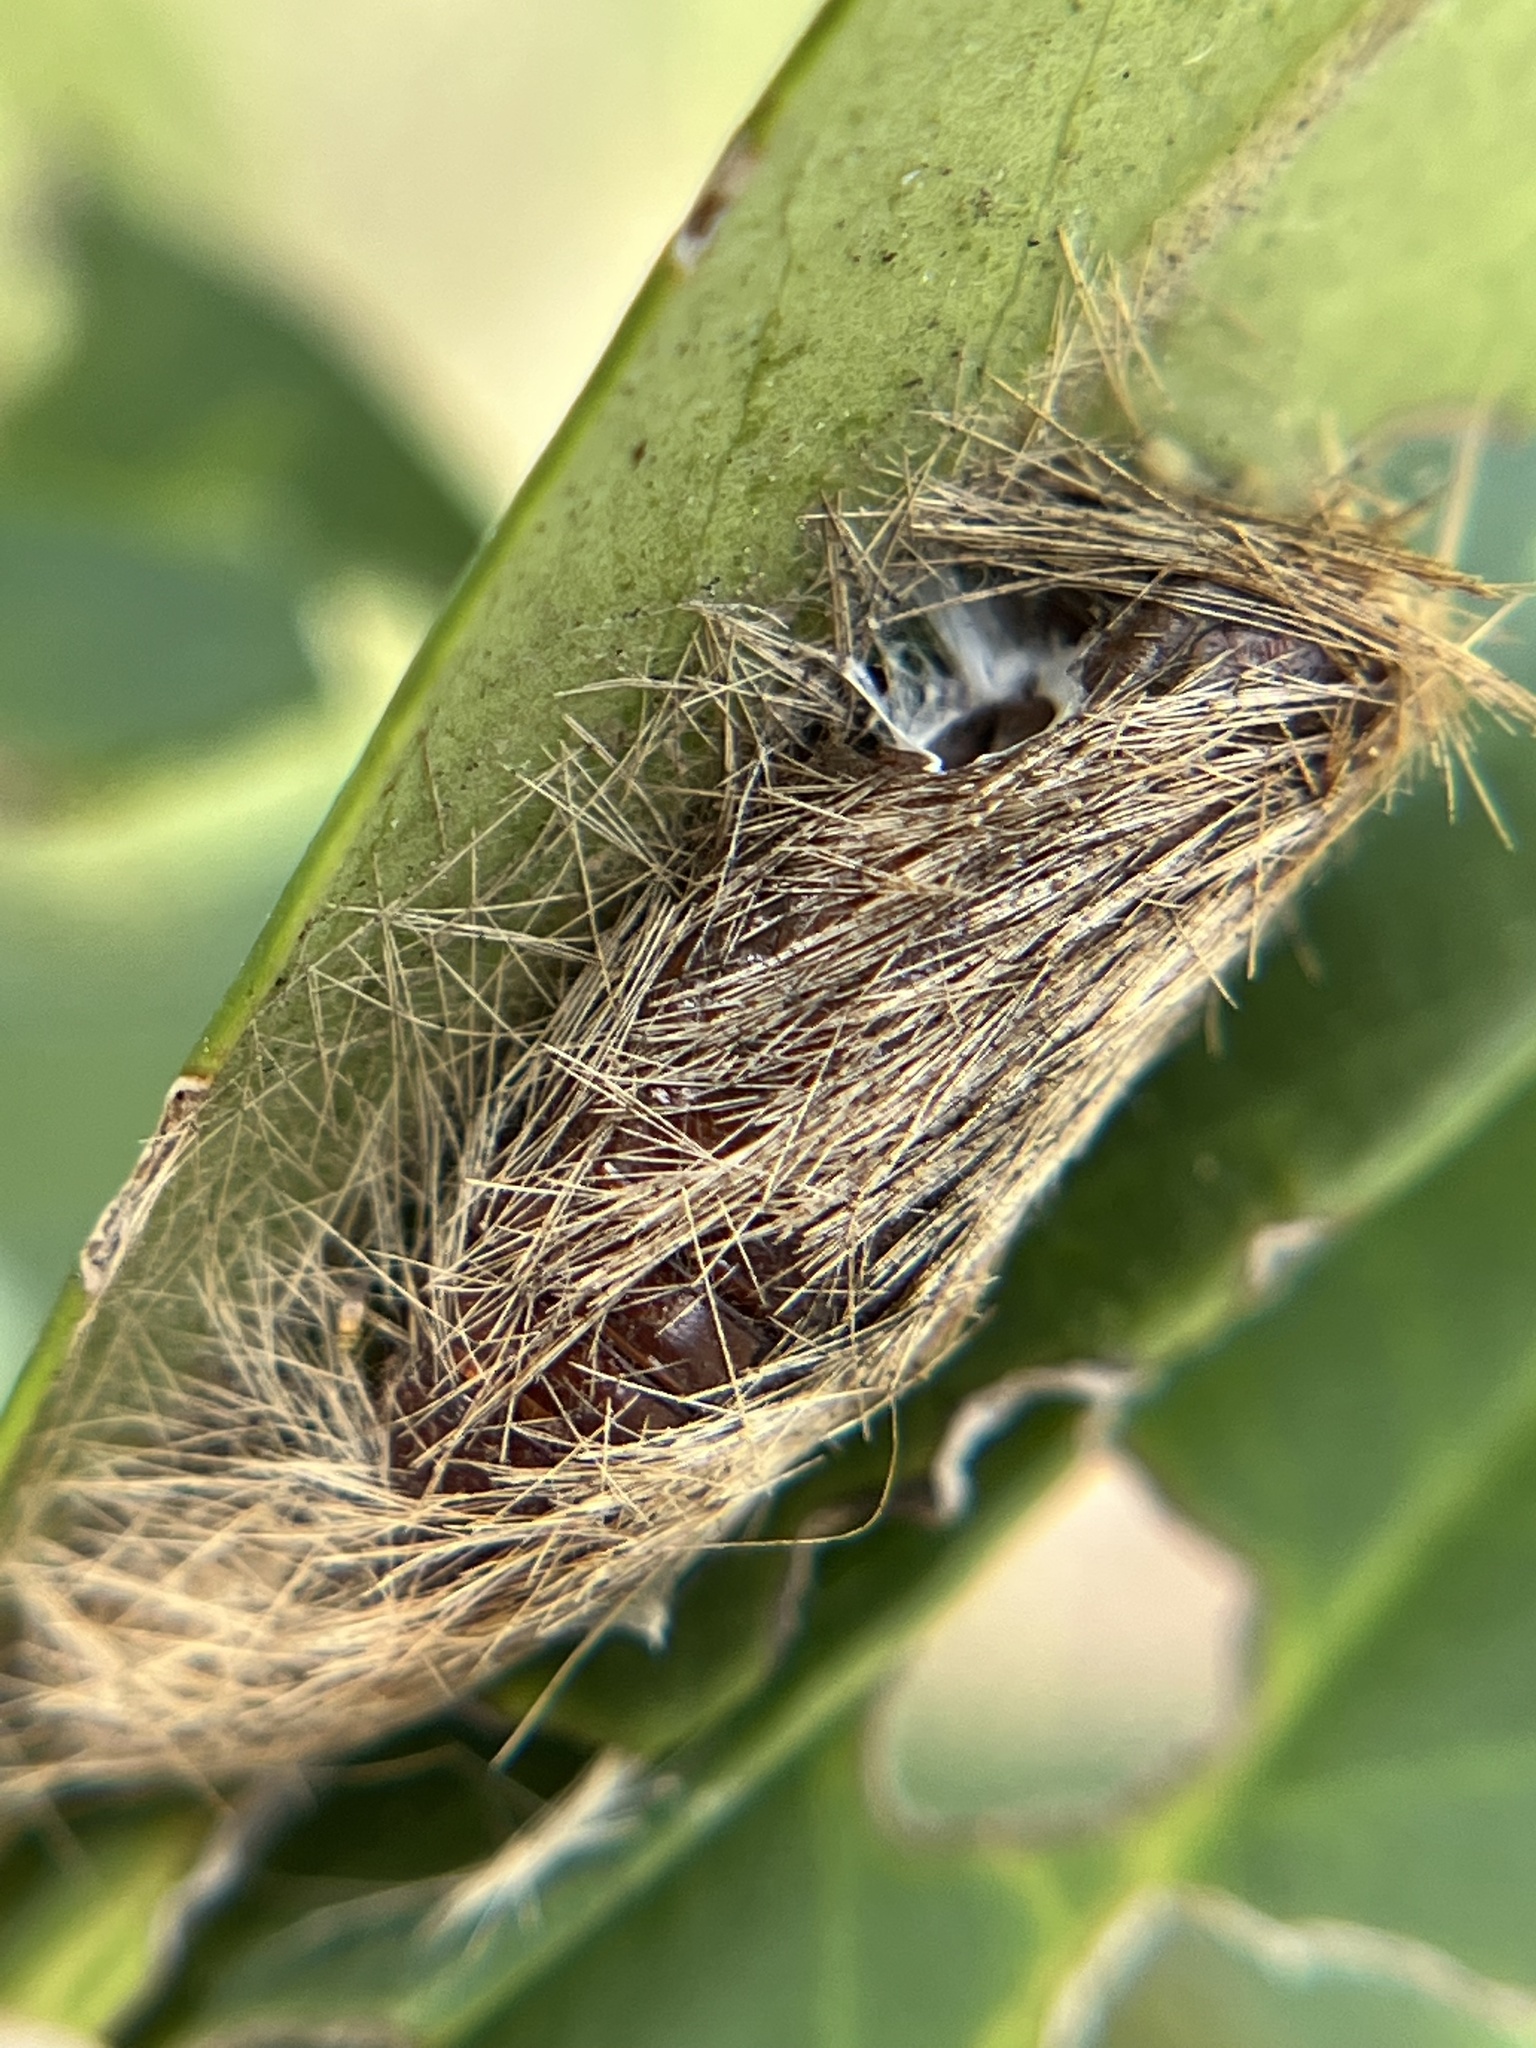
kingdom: Animalia
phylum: Arthropoda
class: Insecta
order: Lepidoptera
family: Erebidae
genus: Lymire
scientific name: Lymire edwardsii
